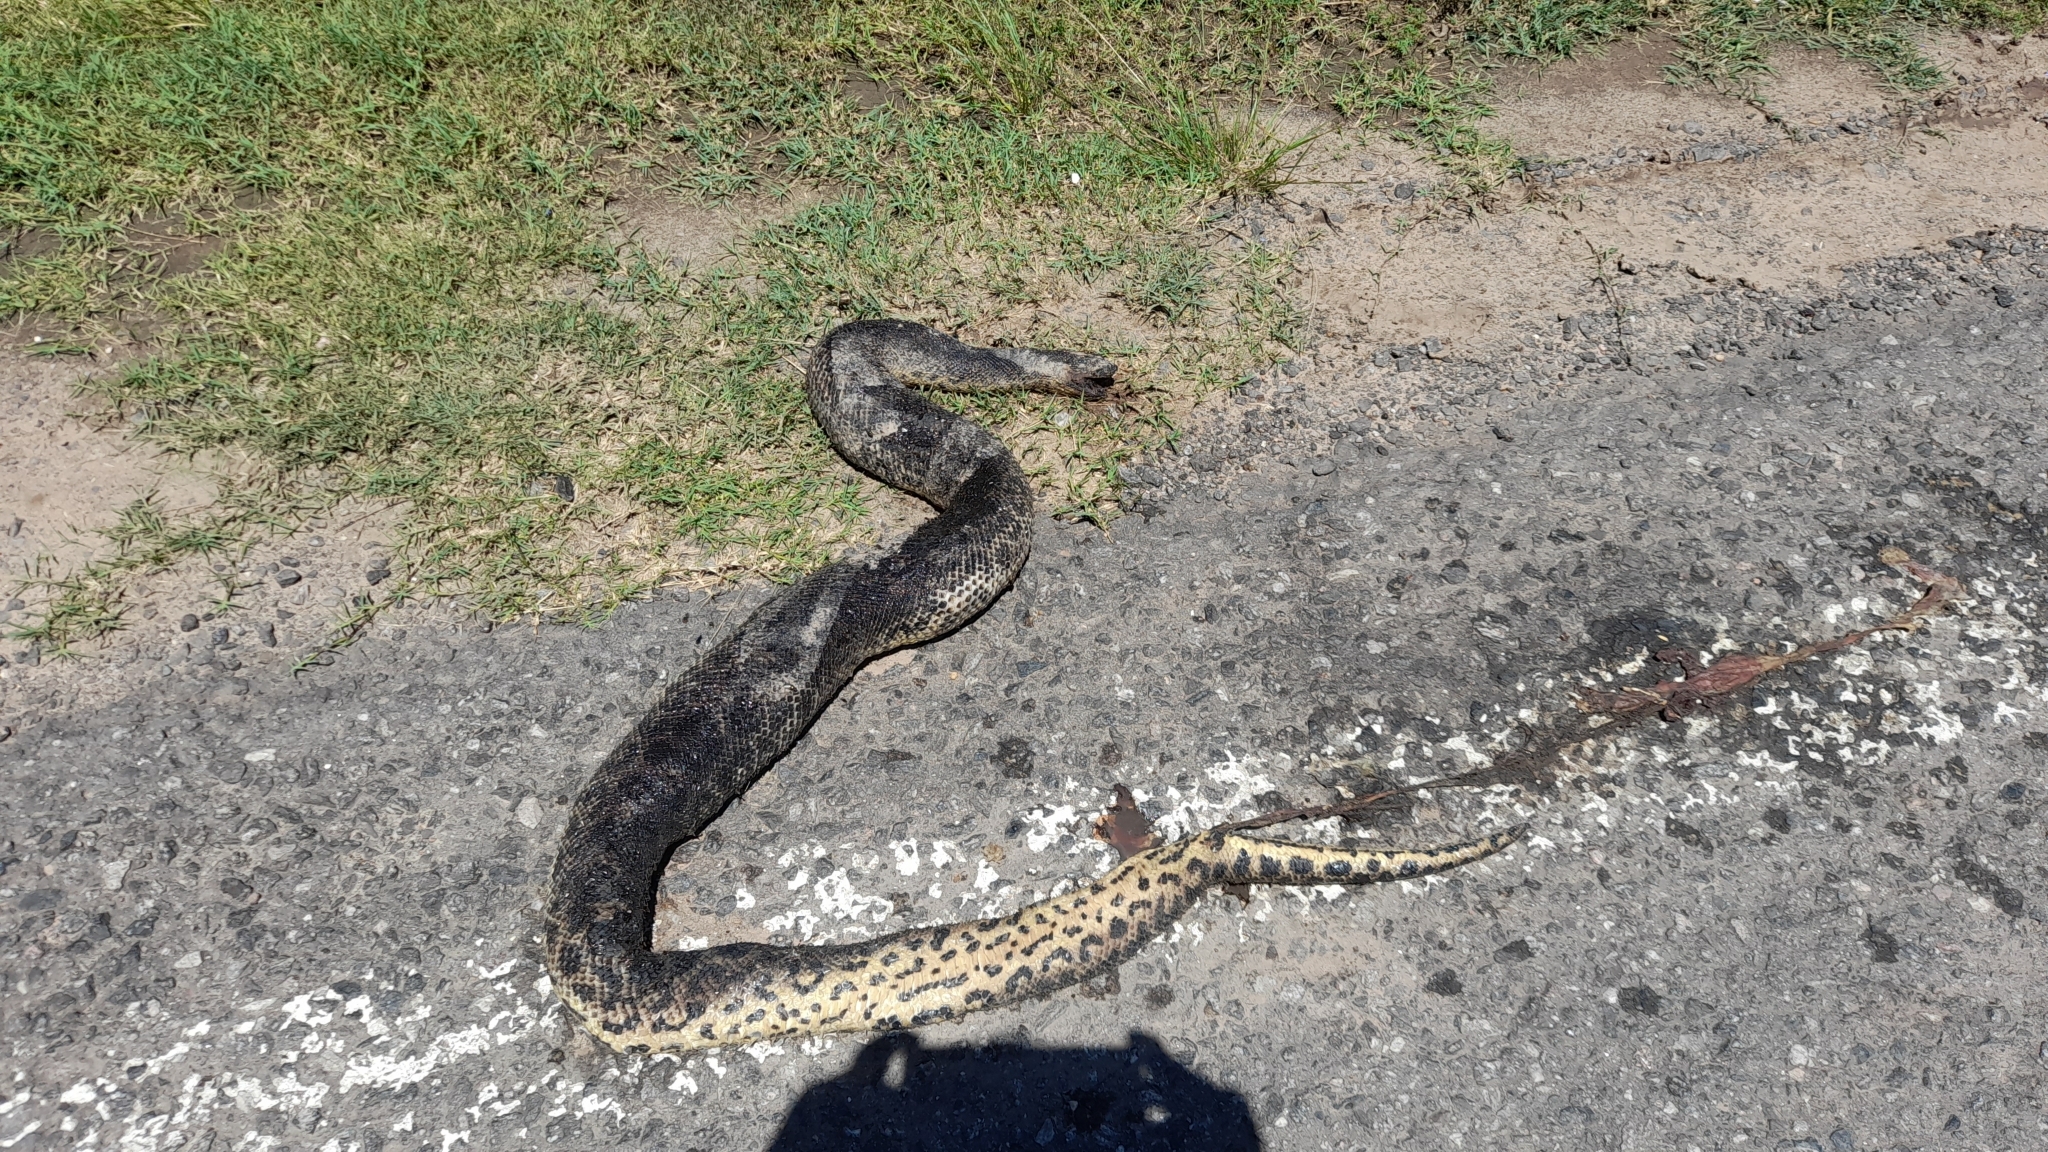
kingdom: Animalia
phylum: Chordata
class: Squamata
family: Boidae
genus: Eunectes
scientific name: Eunectes notaeus
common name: Yellow anaconda
